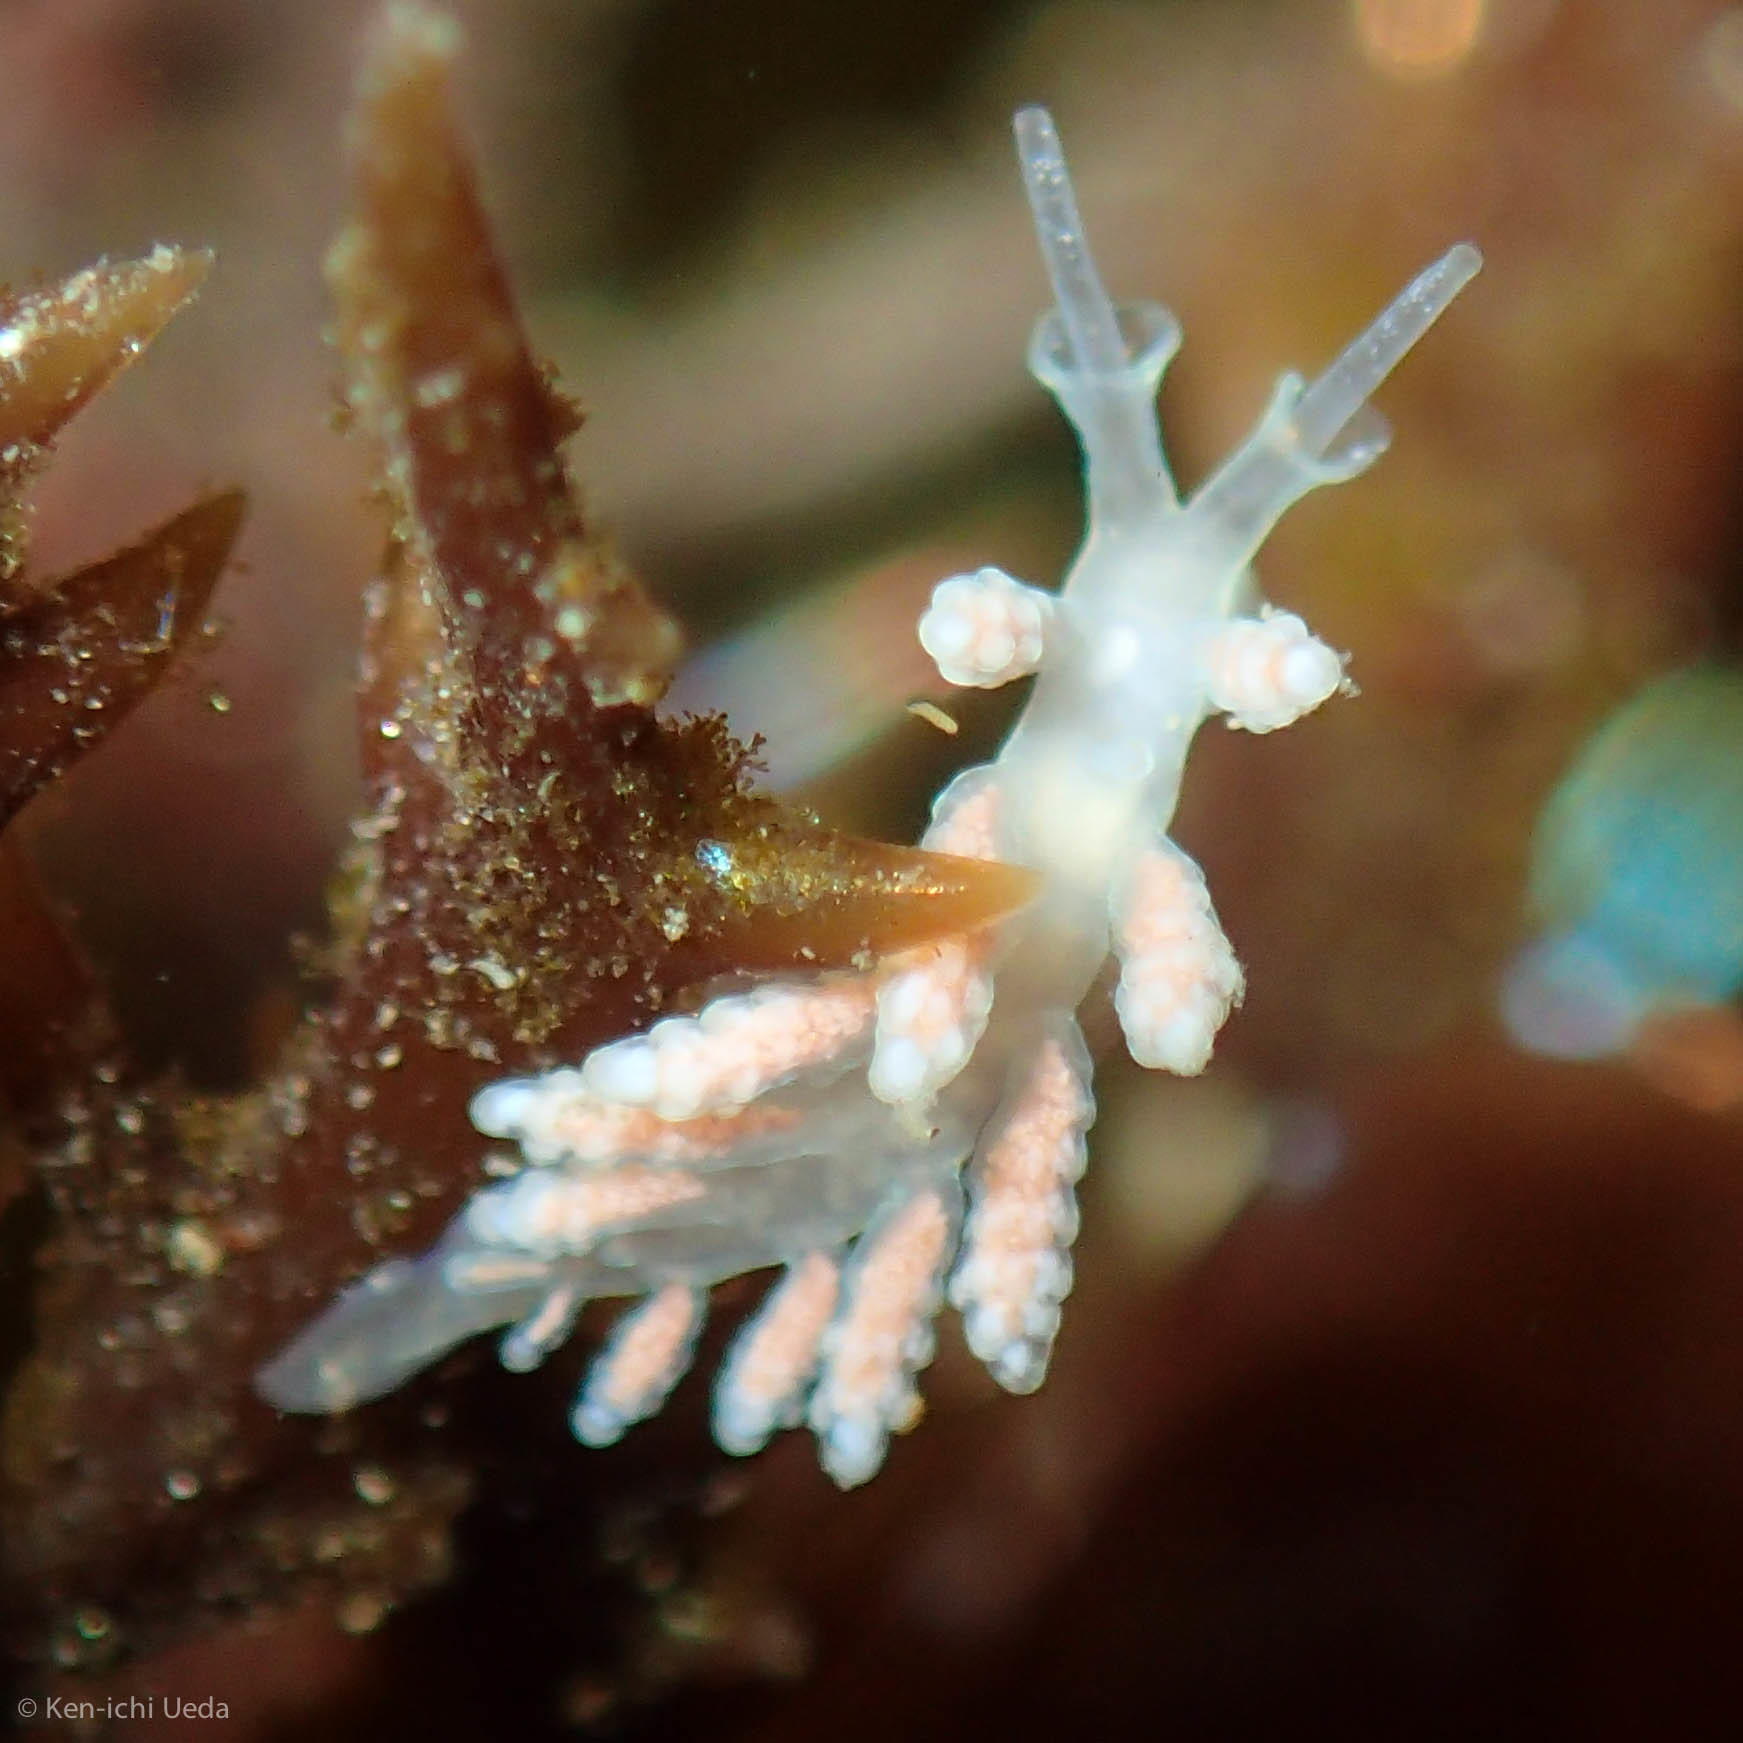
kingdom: Animalia
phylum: Mollusca
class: Gastropoda
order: Nudibranchia
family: Dotidae
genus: Doto
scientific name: Doto amyra
